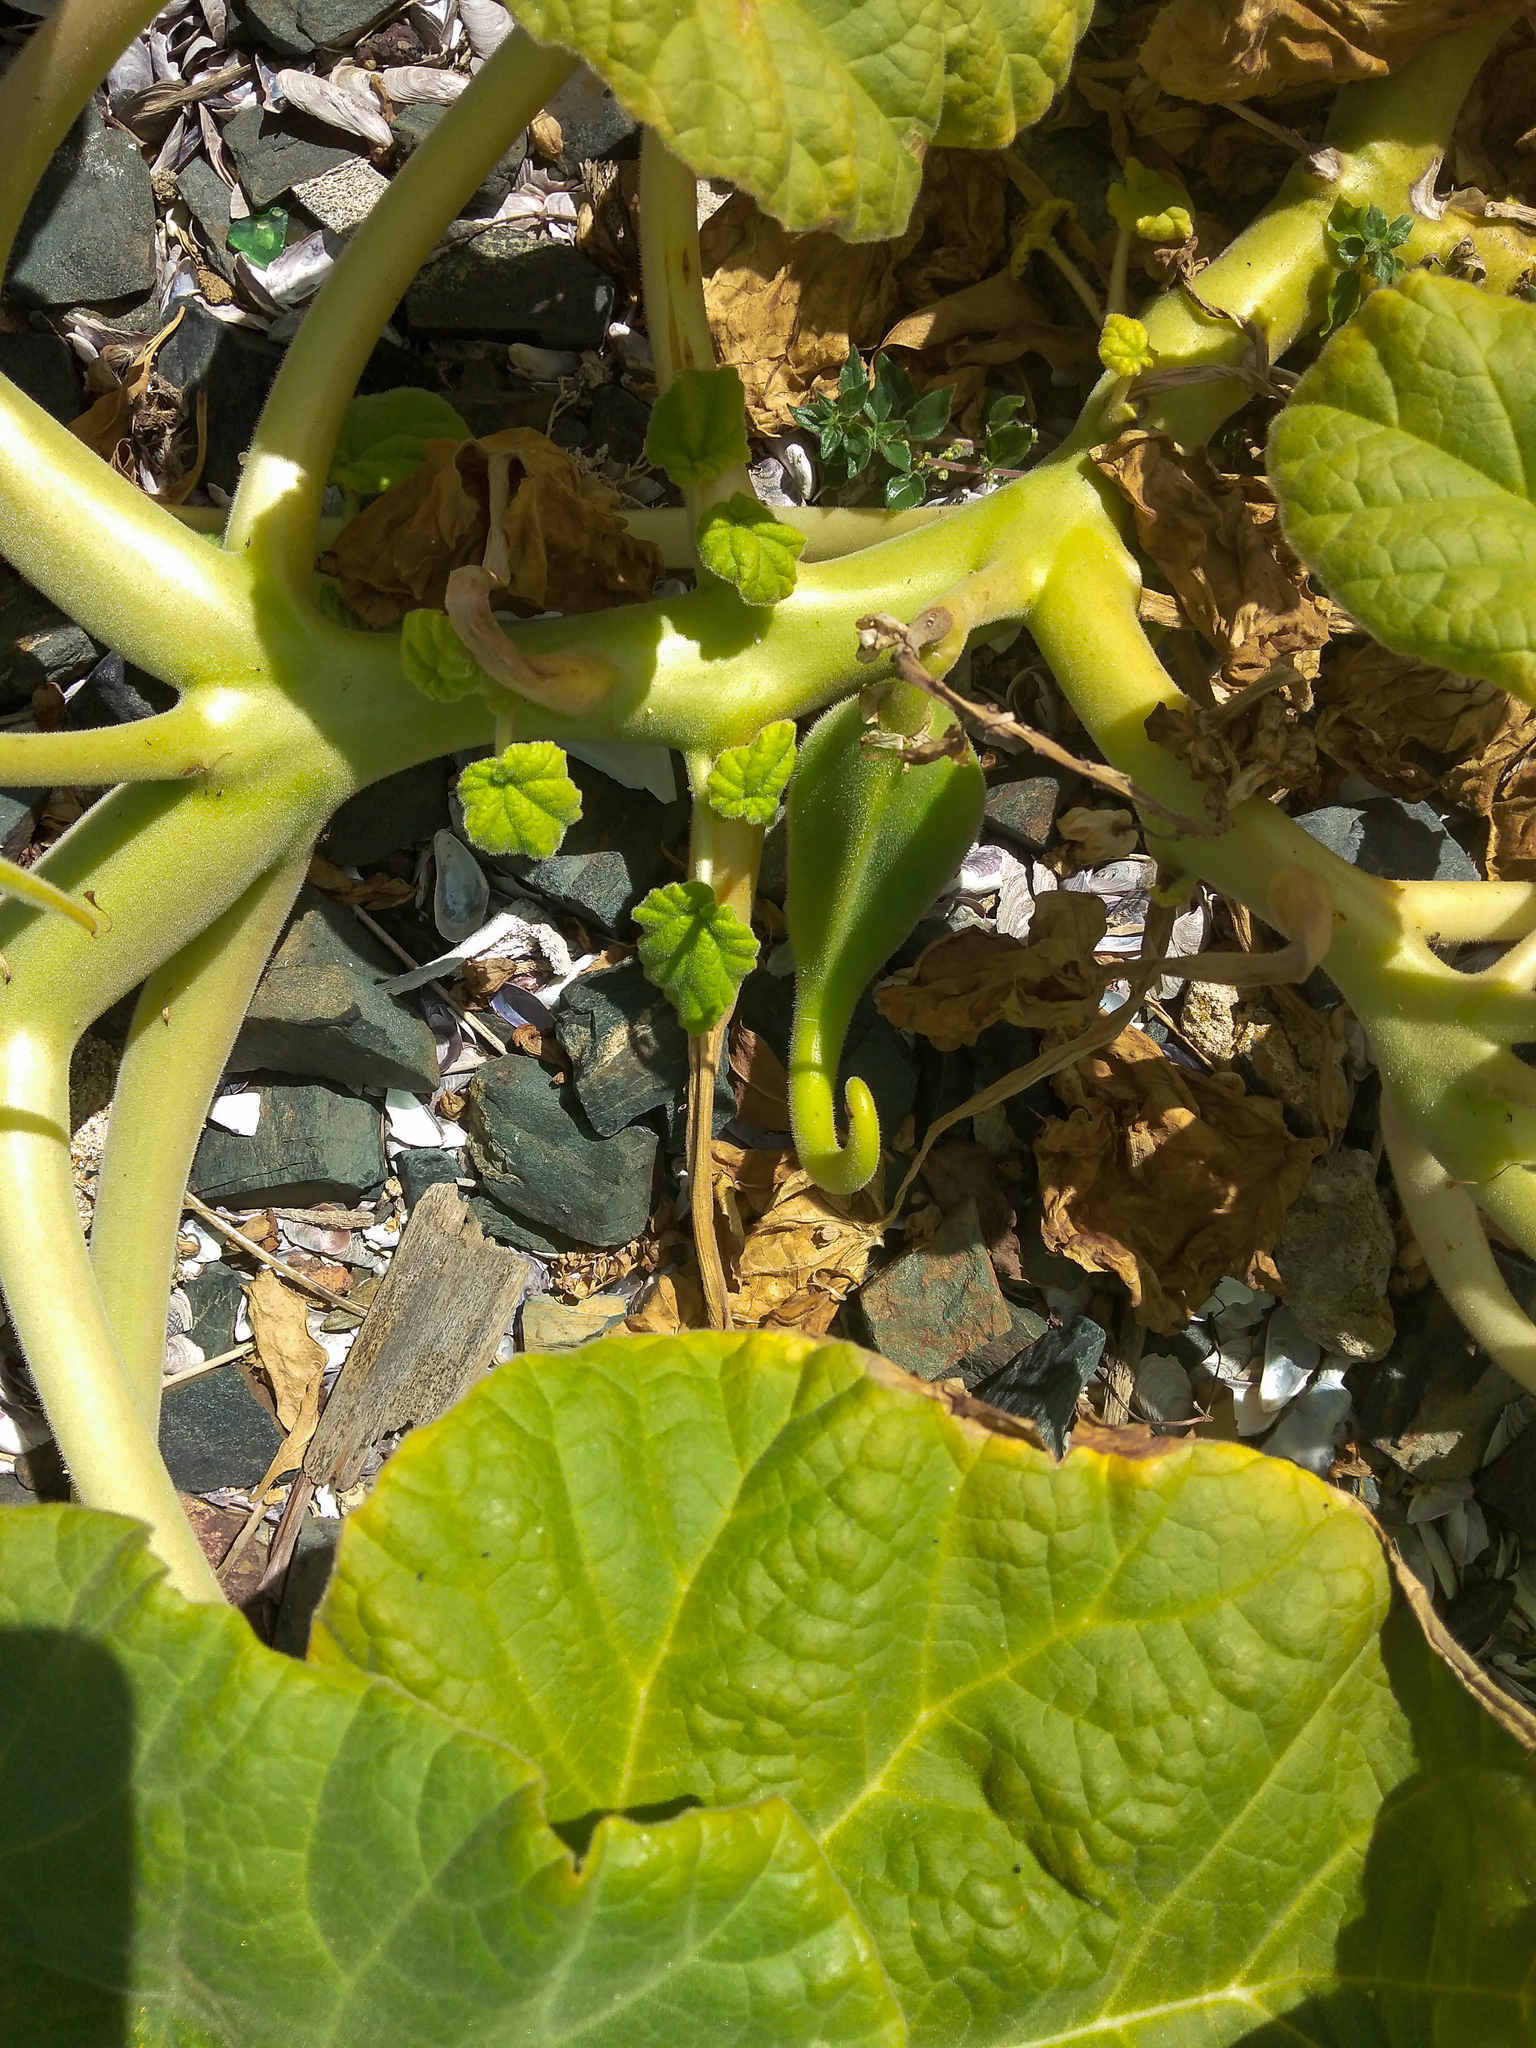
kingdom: Plantae
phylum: Tracheophyta
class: Magnoliopsida
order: Lamiales
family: Martyniaceae
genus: Ibicella
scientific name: Ibicella lutea
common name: Yellow unicorn-plant
